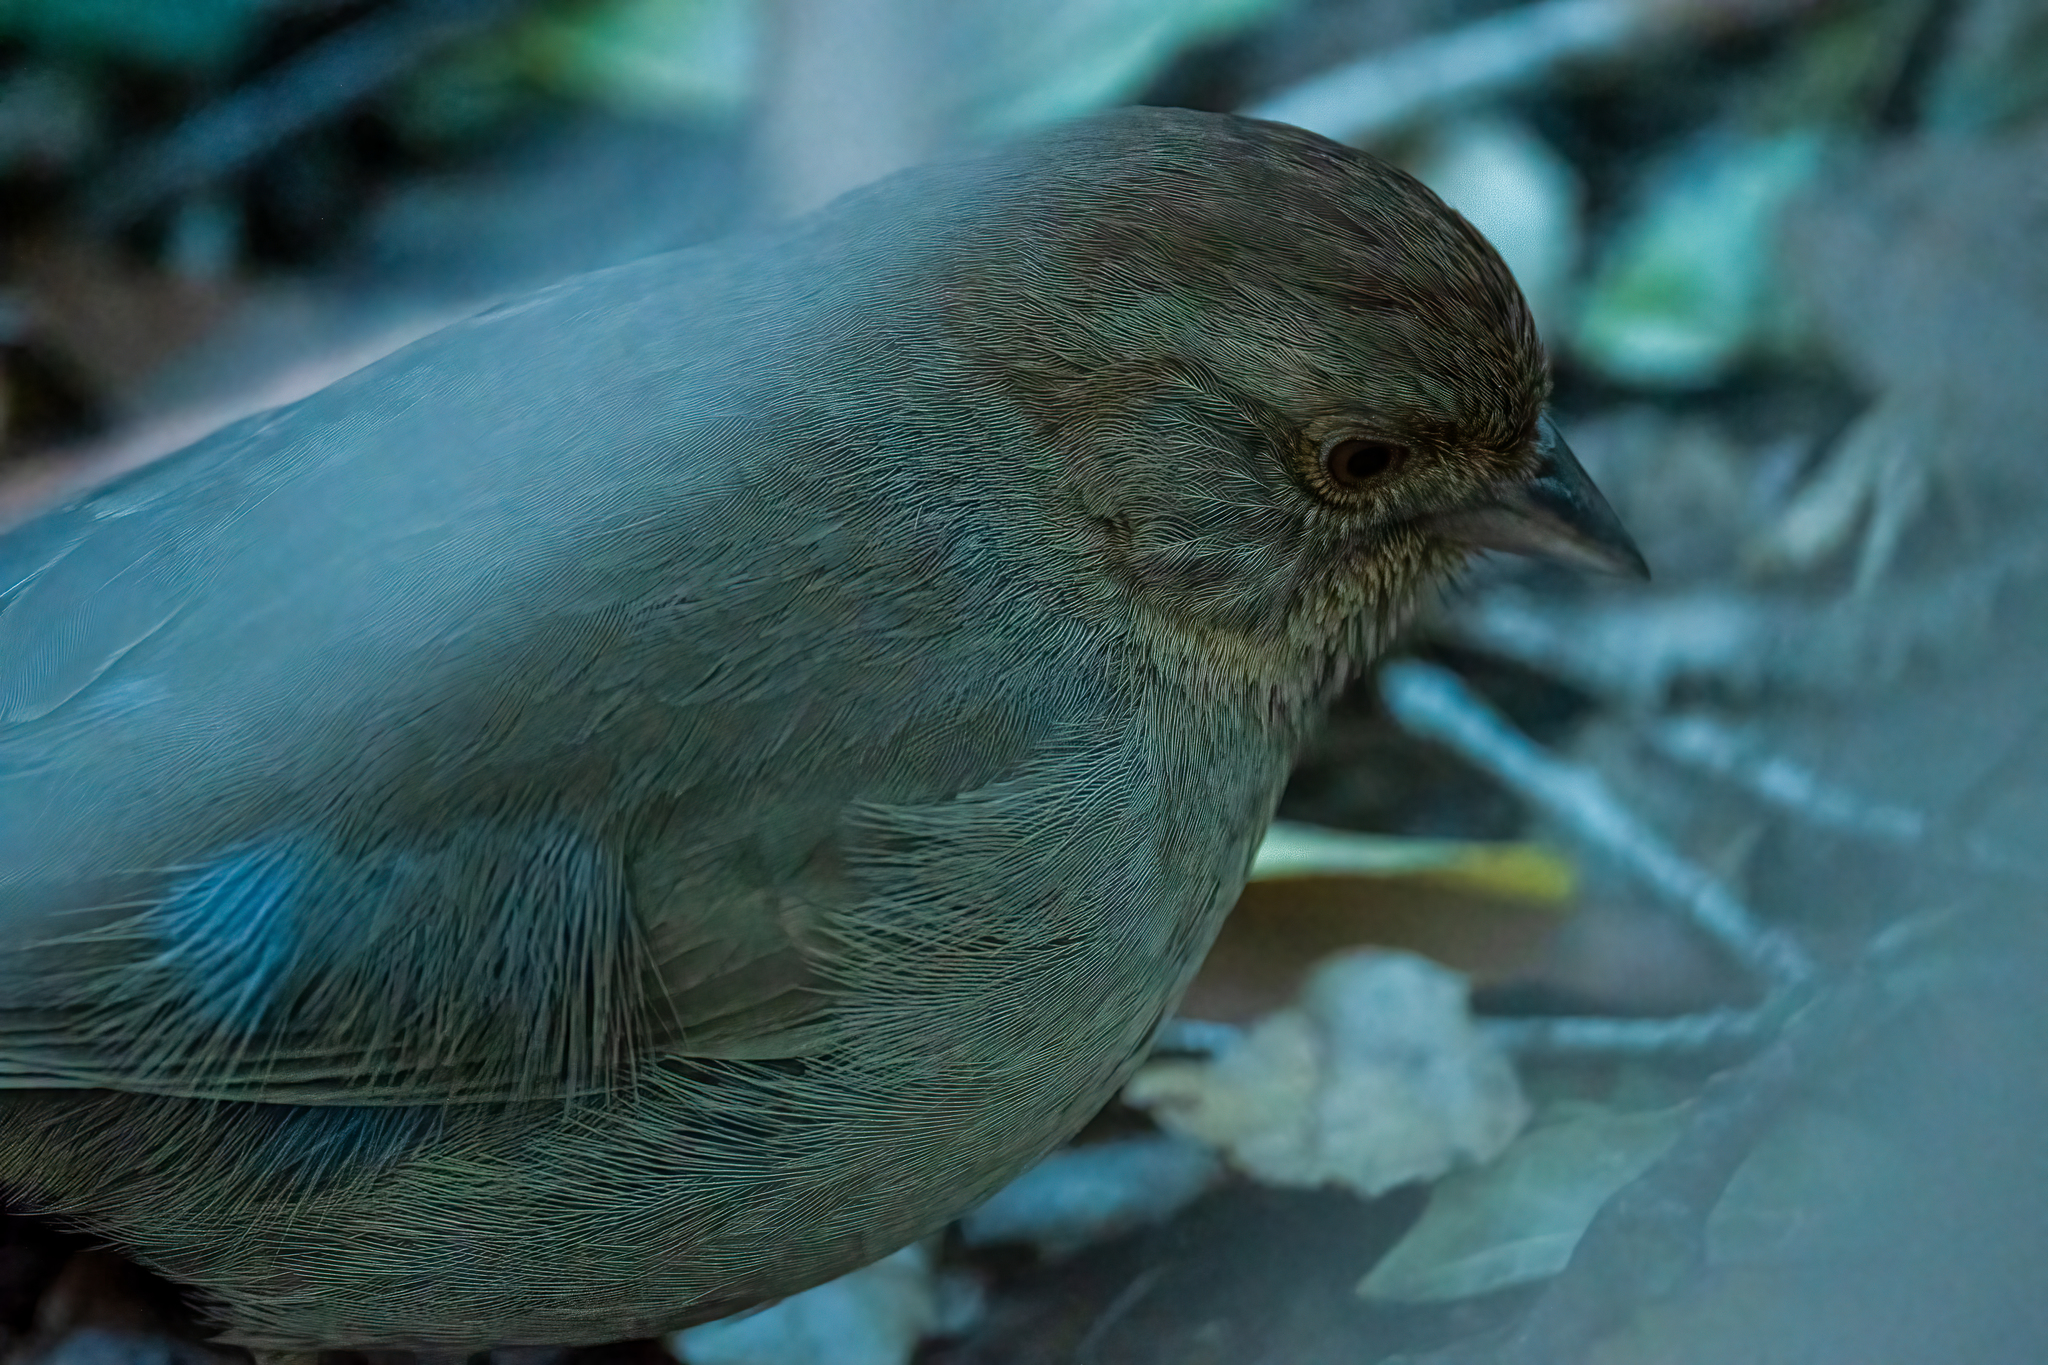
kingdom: Animalia
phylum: Chordata
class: Aves
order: Passeriformes
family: Passerellidae
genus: Melozone
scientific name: Melozone crissalis
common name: California towhee
